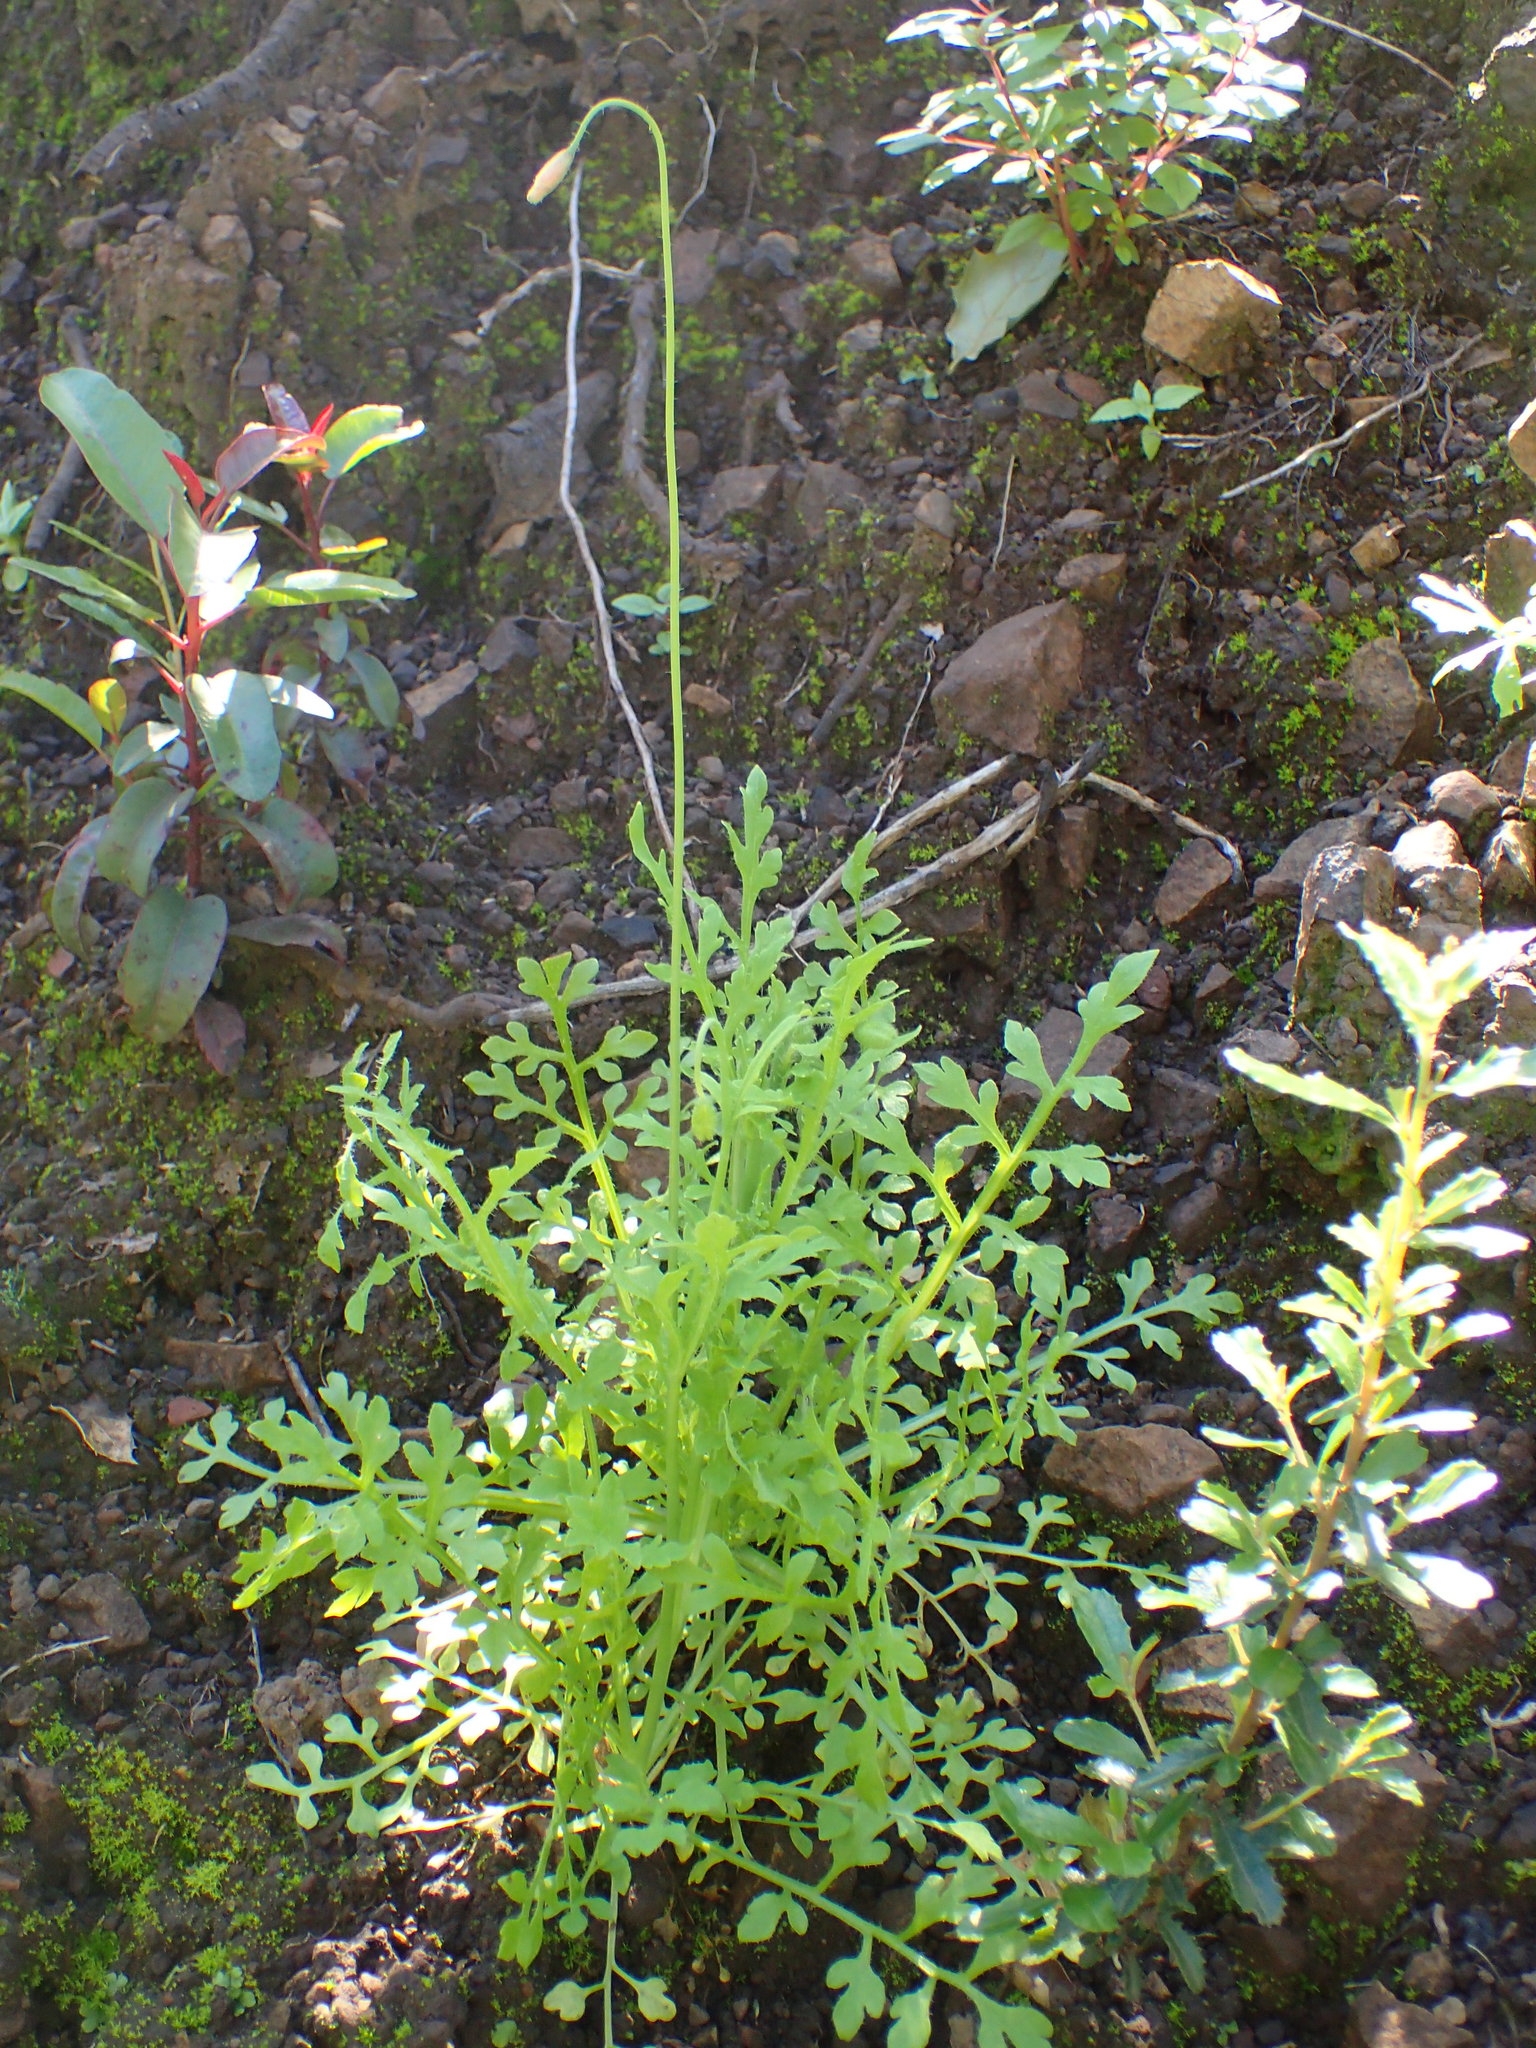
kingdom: Plantae
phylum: Tracheophyta
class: Magnoliopsida
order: Ranunculales
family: Papaveraceae
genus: Papaver
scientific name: Papaver californicum
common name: Fire poppy
